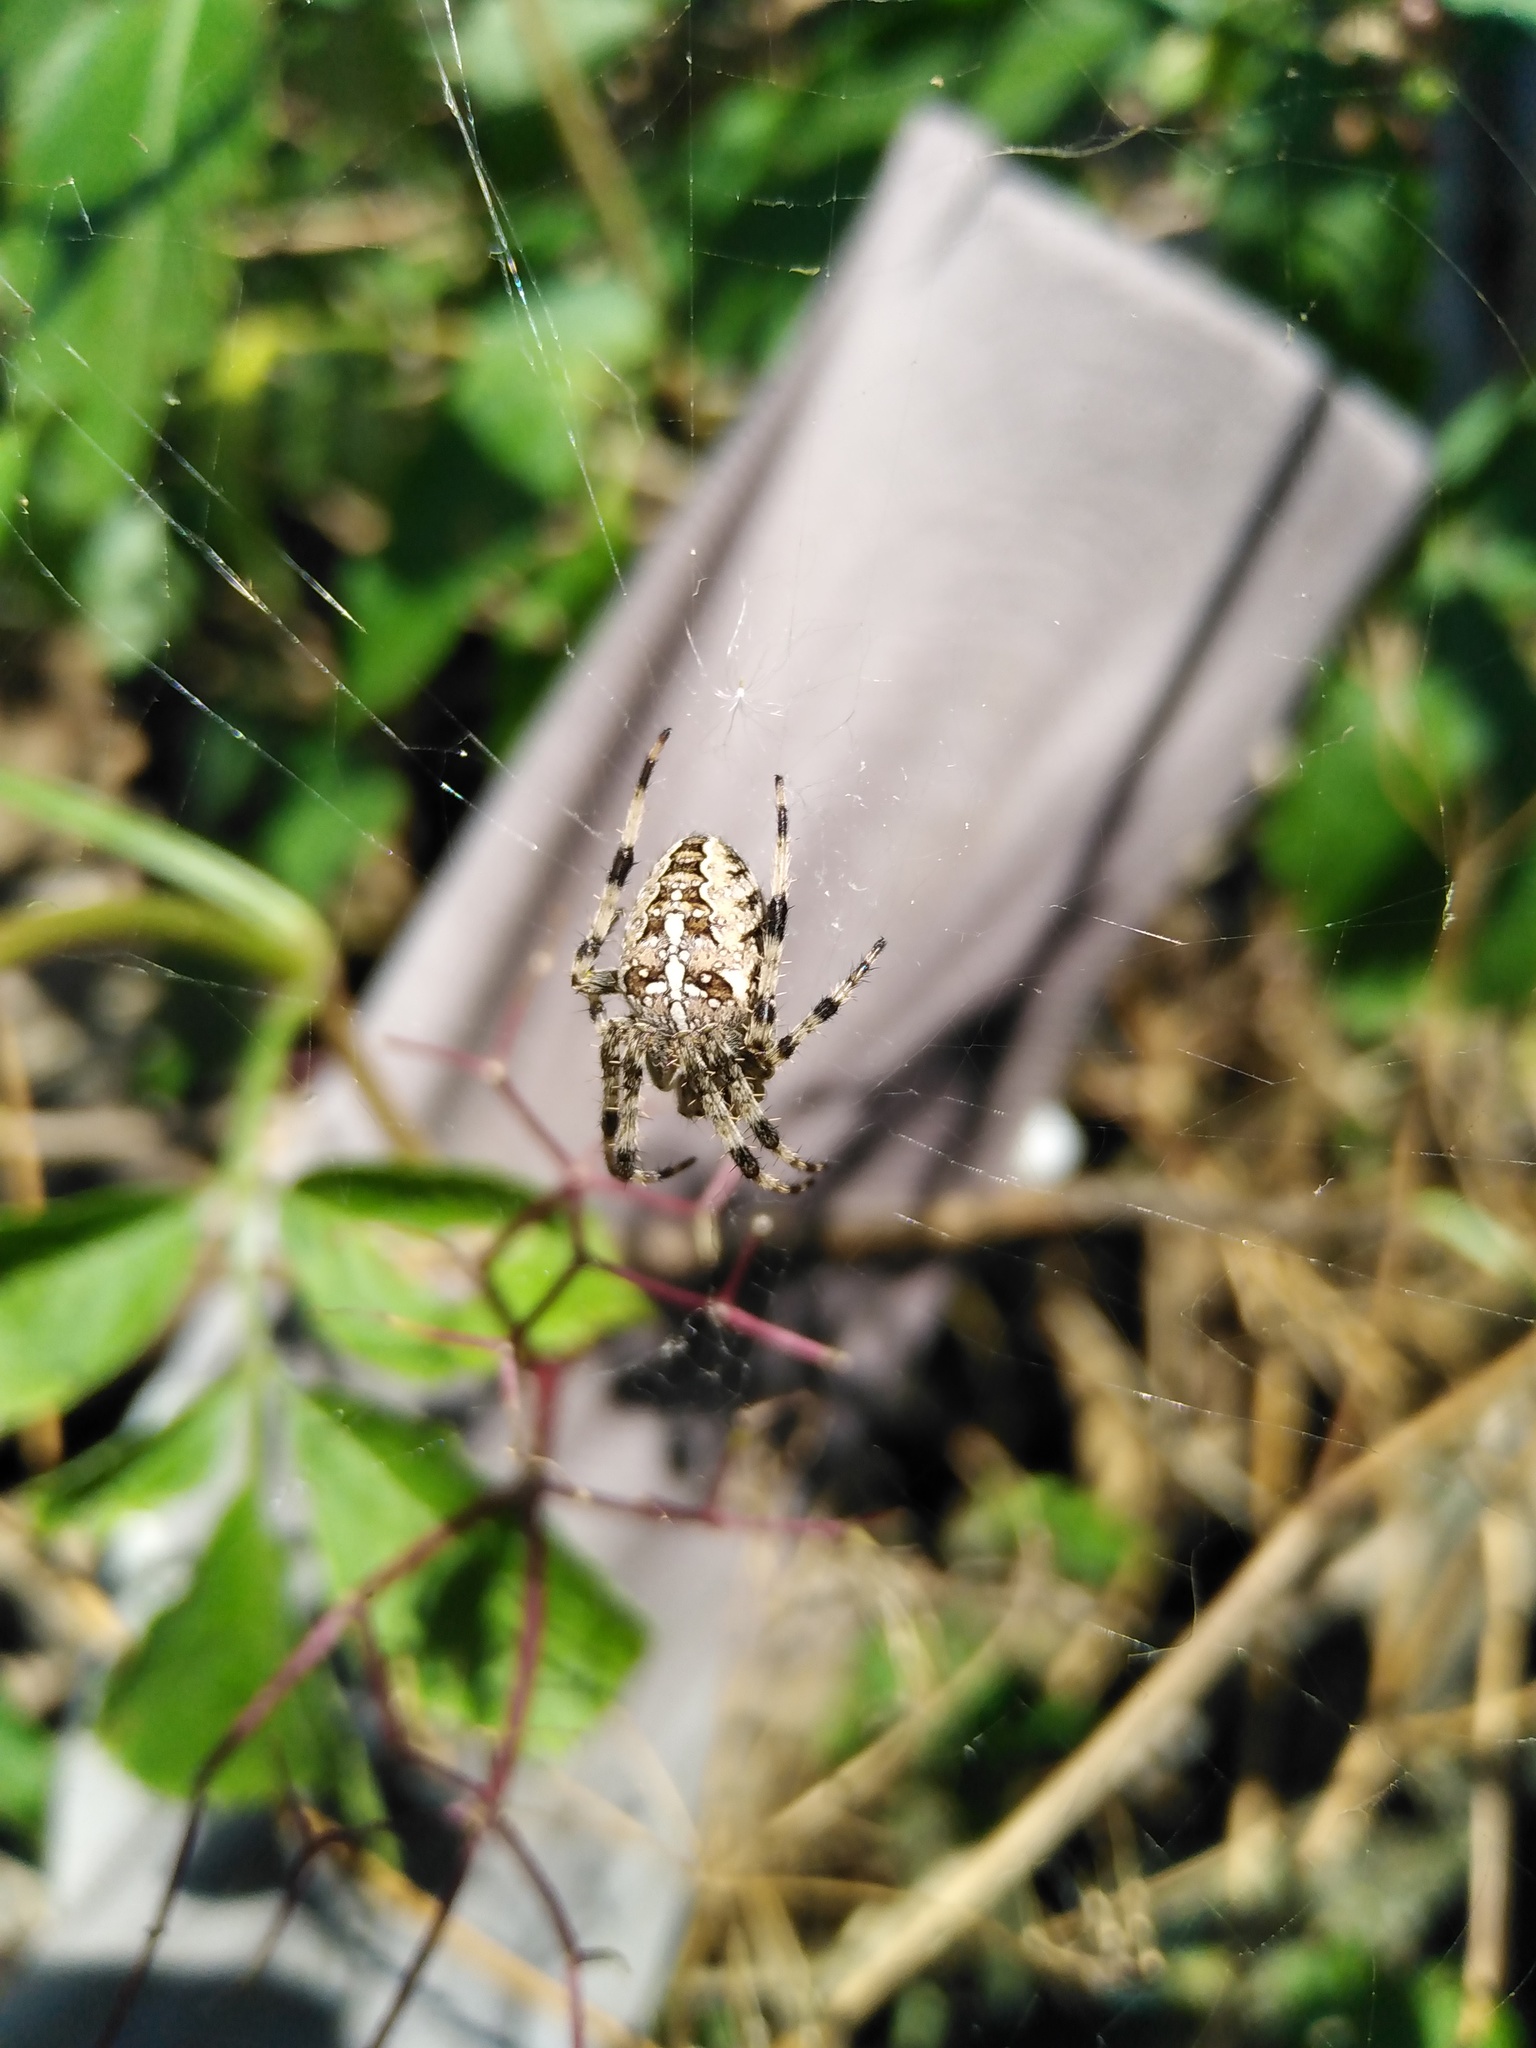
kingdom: Animalia
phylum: Arthropoda
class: Arachnida
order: Araneae
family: Araneidae
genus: Araneus
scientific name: Araneus diadematus
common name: Cross orbweaver
